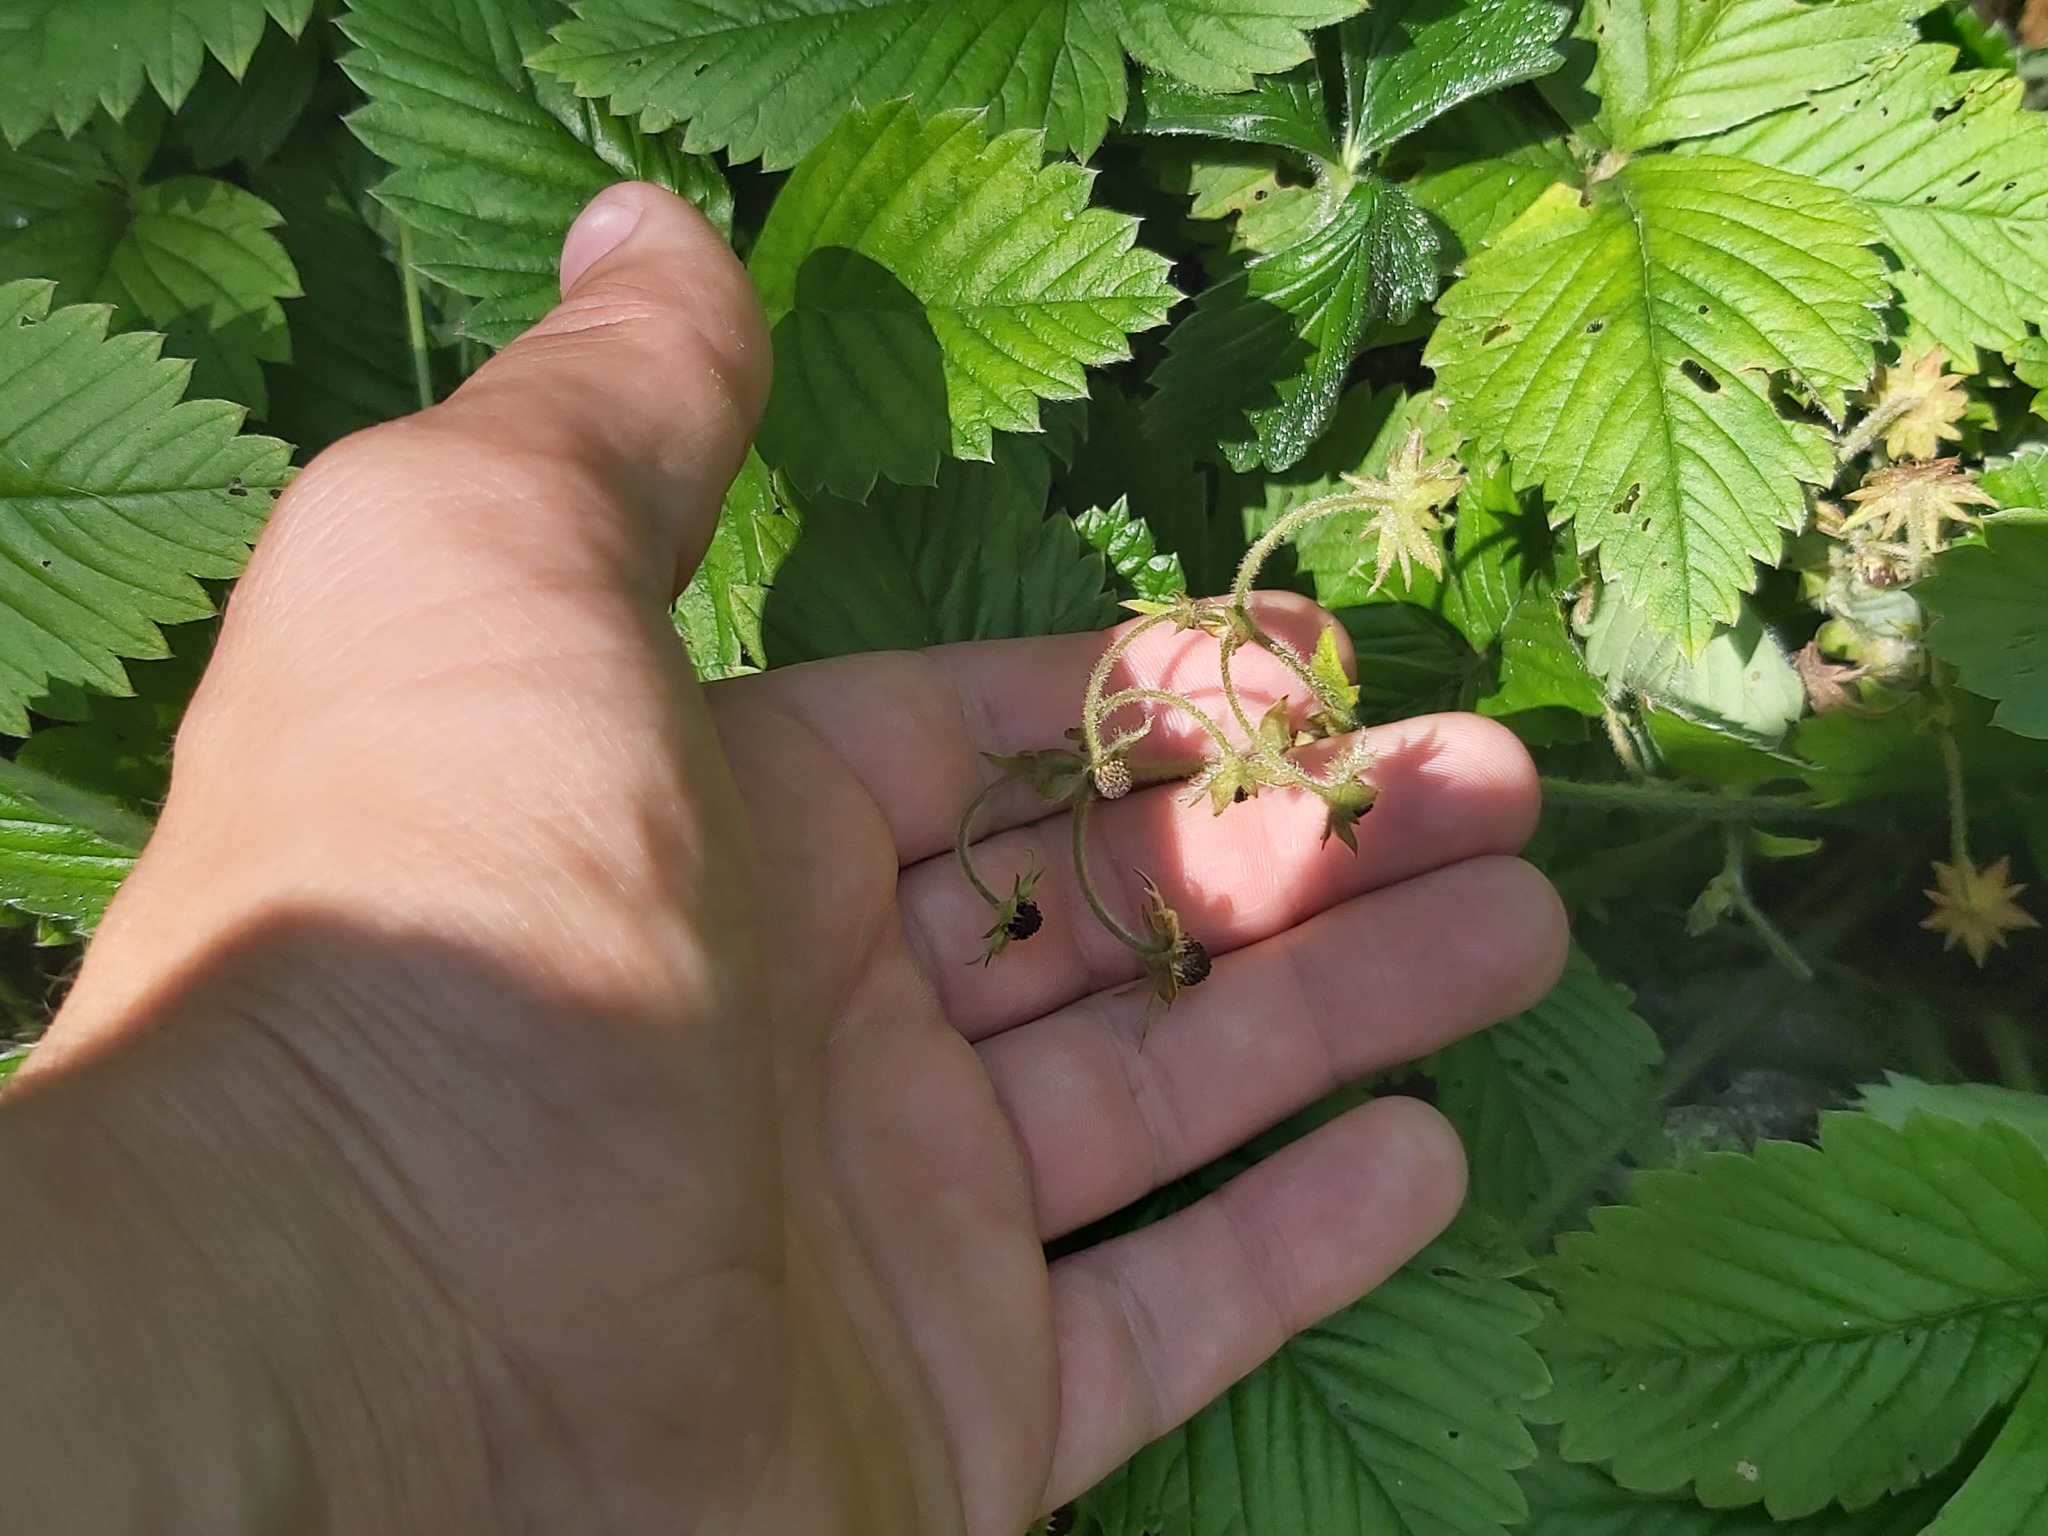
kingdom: Plantae
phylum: Tracheophyta
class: Magnoliopsida
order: Rosales
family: Rosaceae
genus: Fragaria
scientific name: Fragaria moschata
